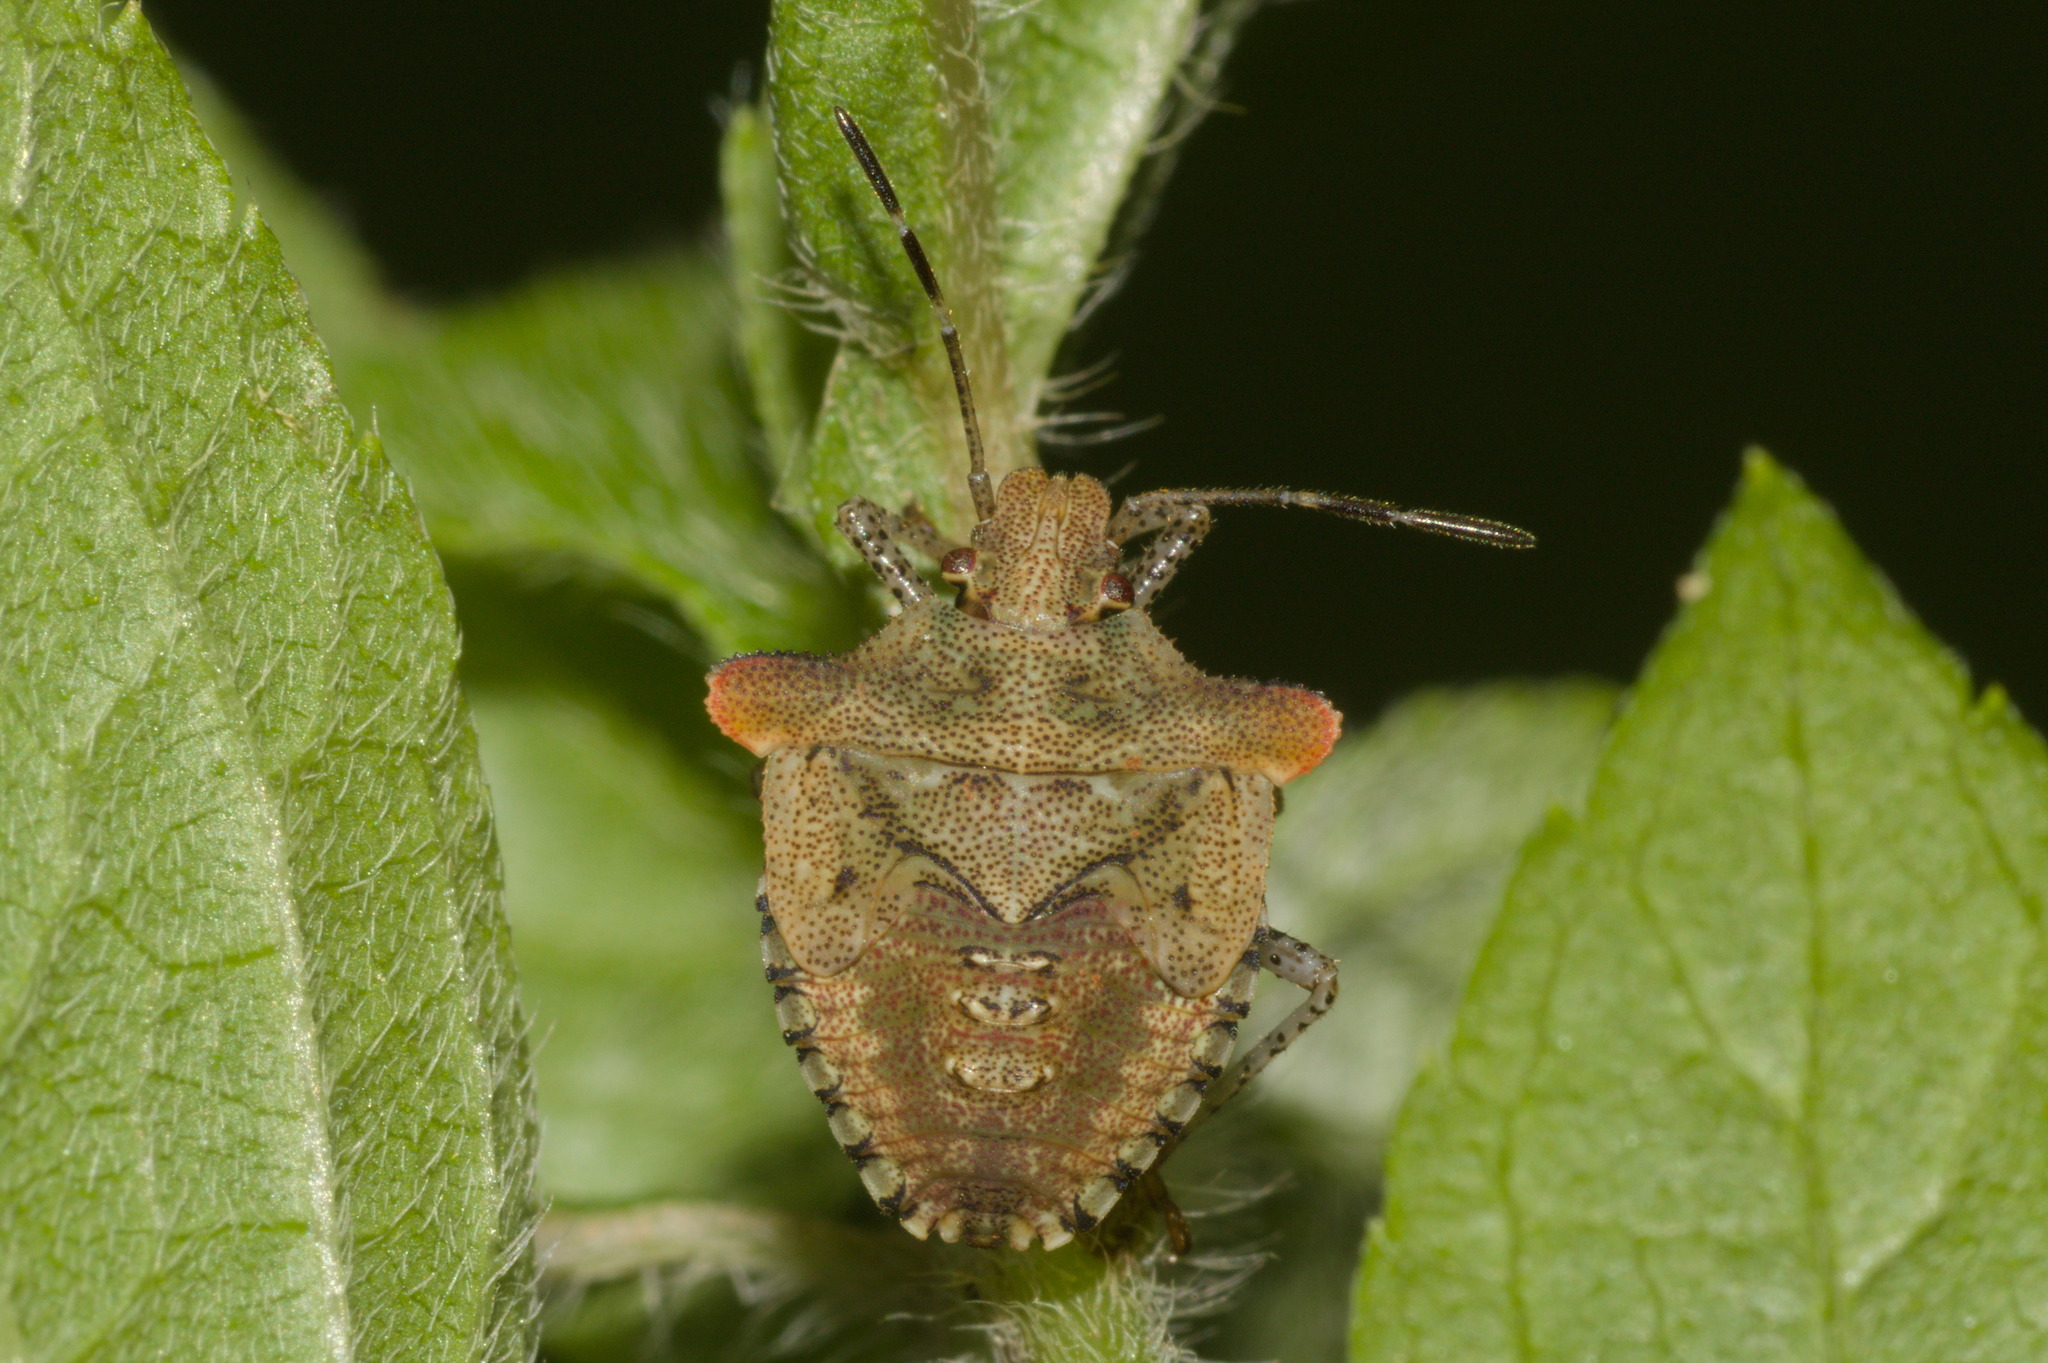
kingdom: Animalia
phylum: Arthropoda
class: Insecta
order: Hemiptera
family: Pentatomidae
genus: Euschistus
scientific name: Euschistus cornutus
